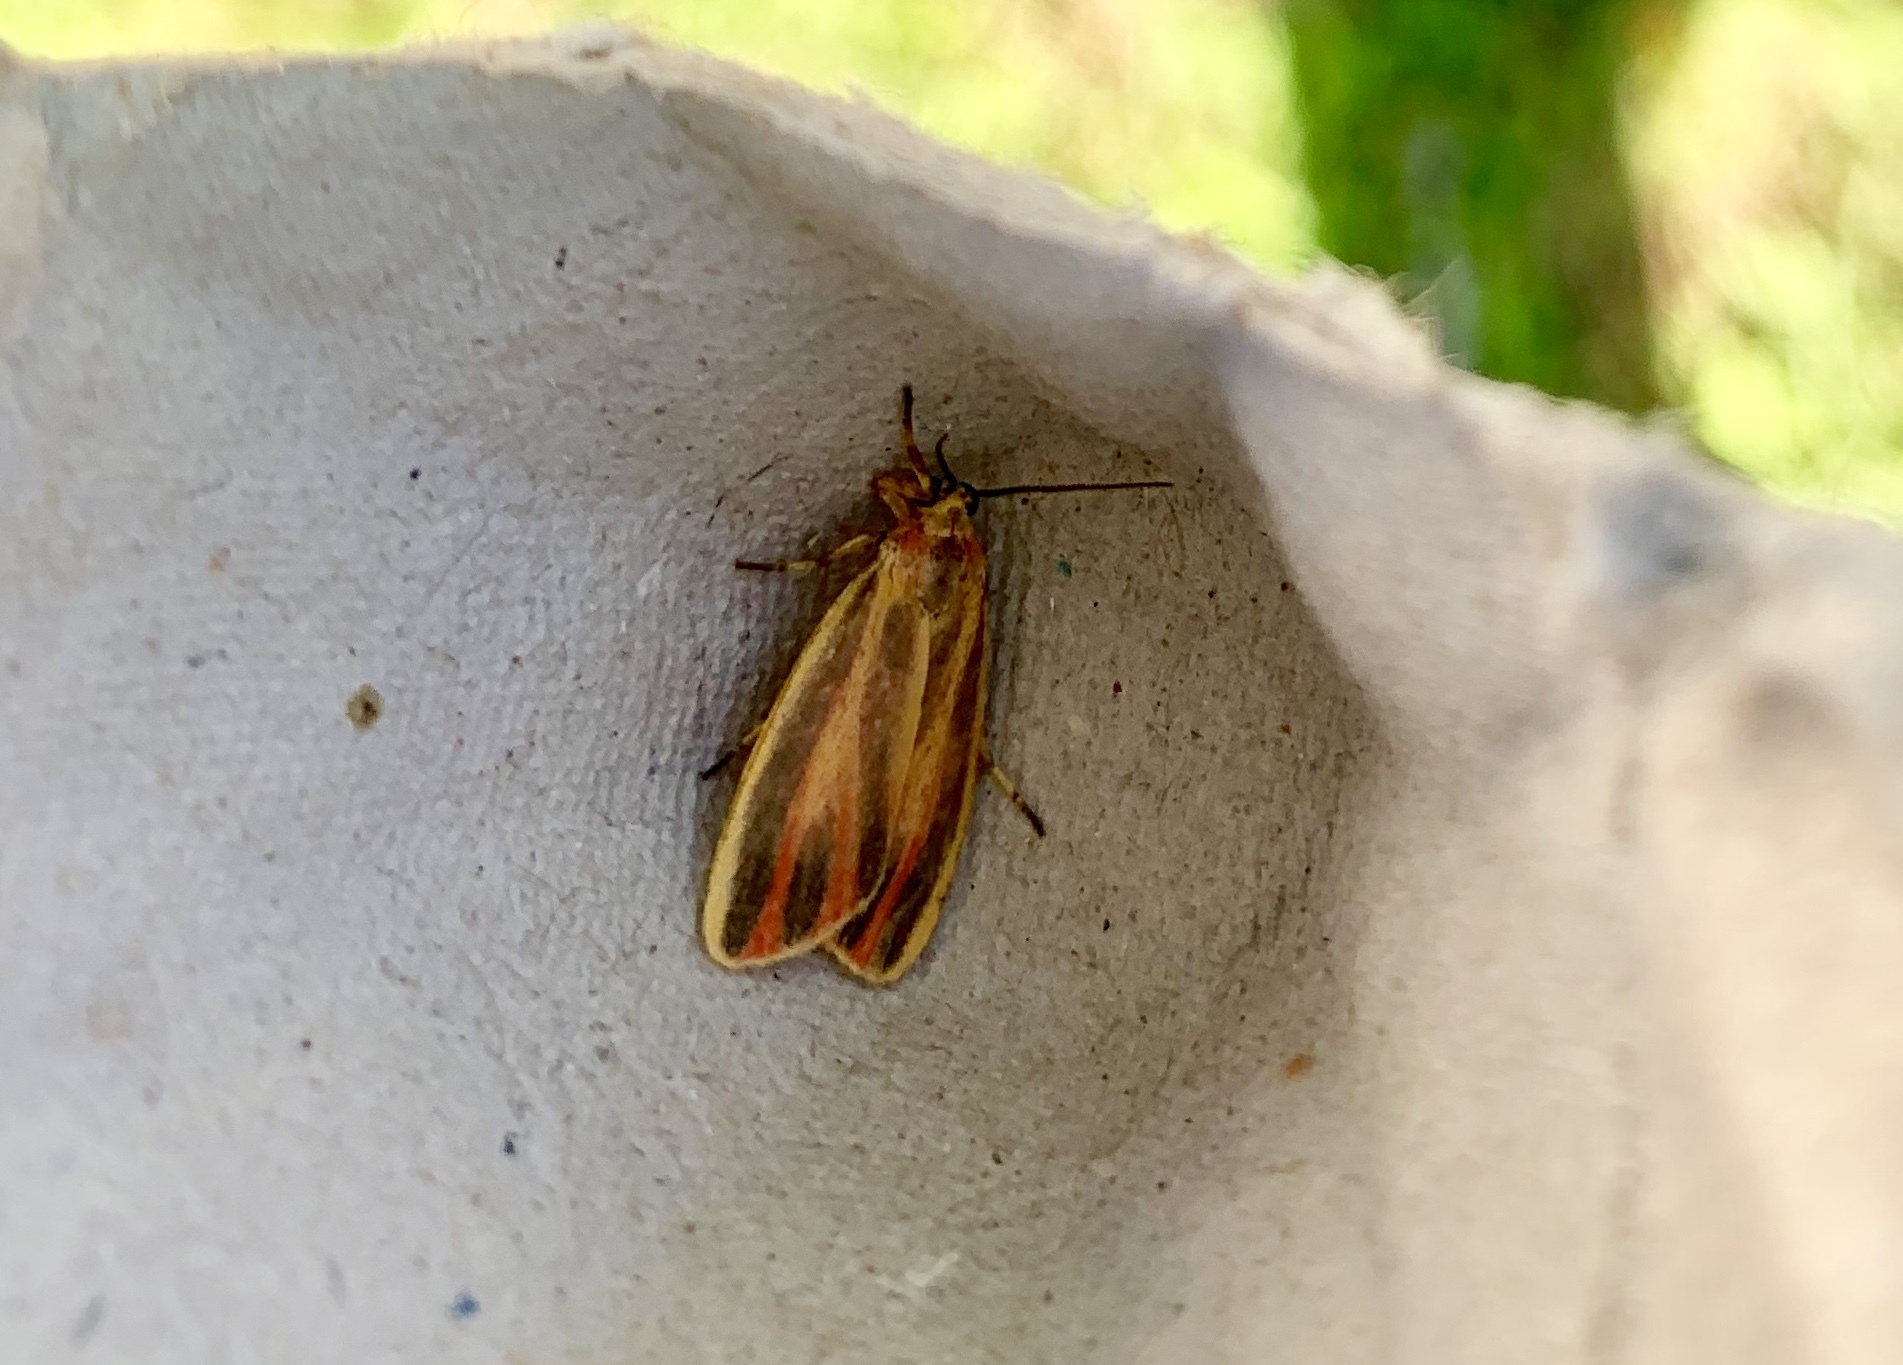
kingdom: Animalia
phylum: Arthropoda
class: Insecta
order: Lepidoptera
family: Erebidae
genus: Hypoprepia
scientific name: Hypoprepia fucosa
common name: Painted lichen moth
